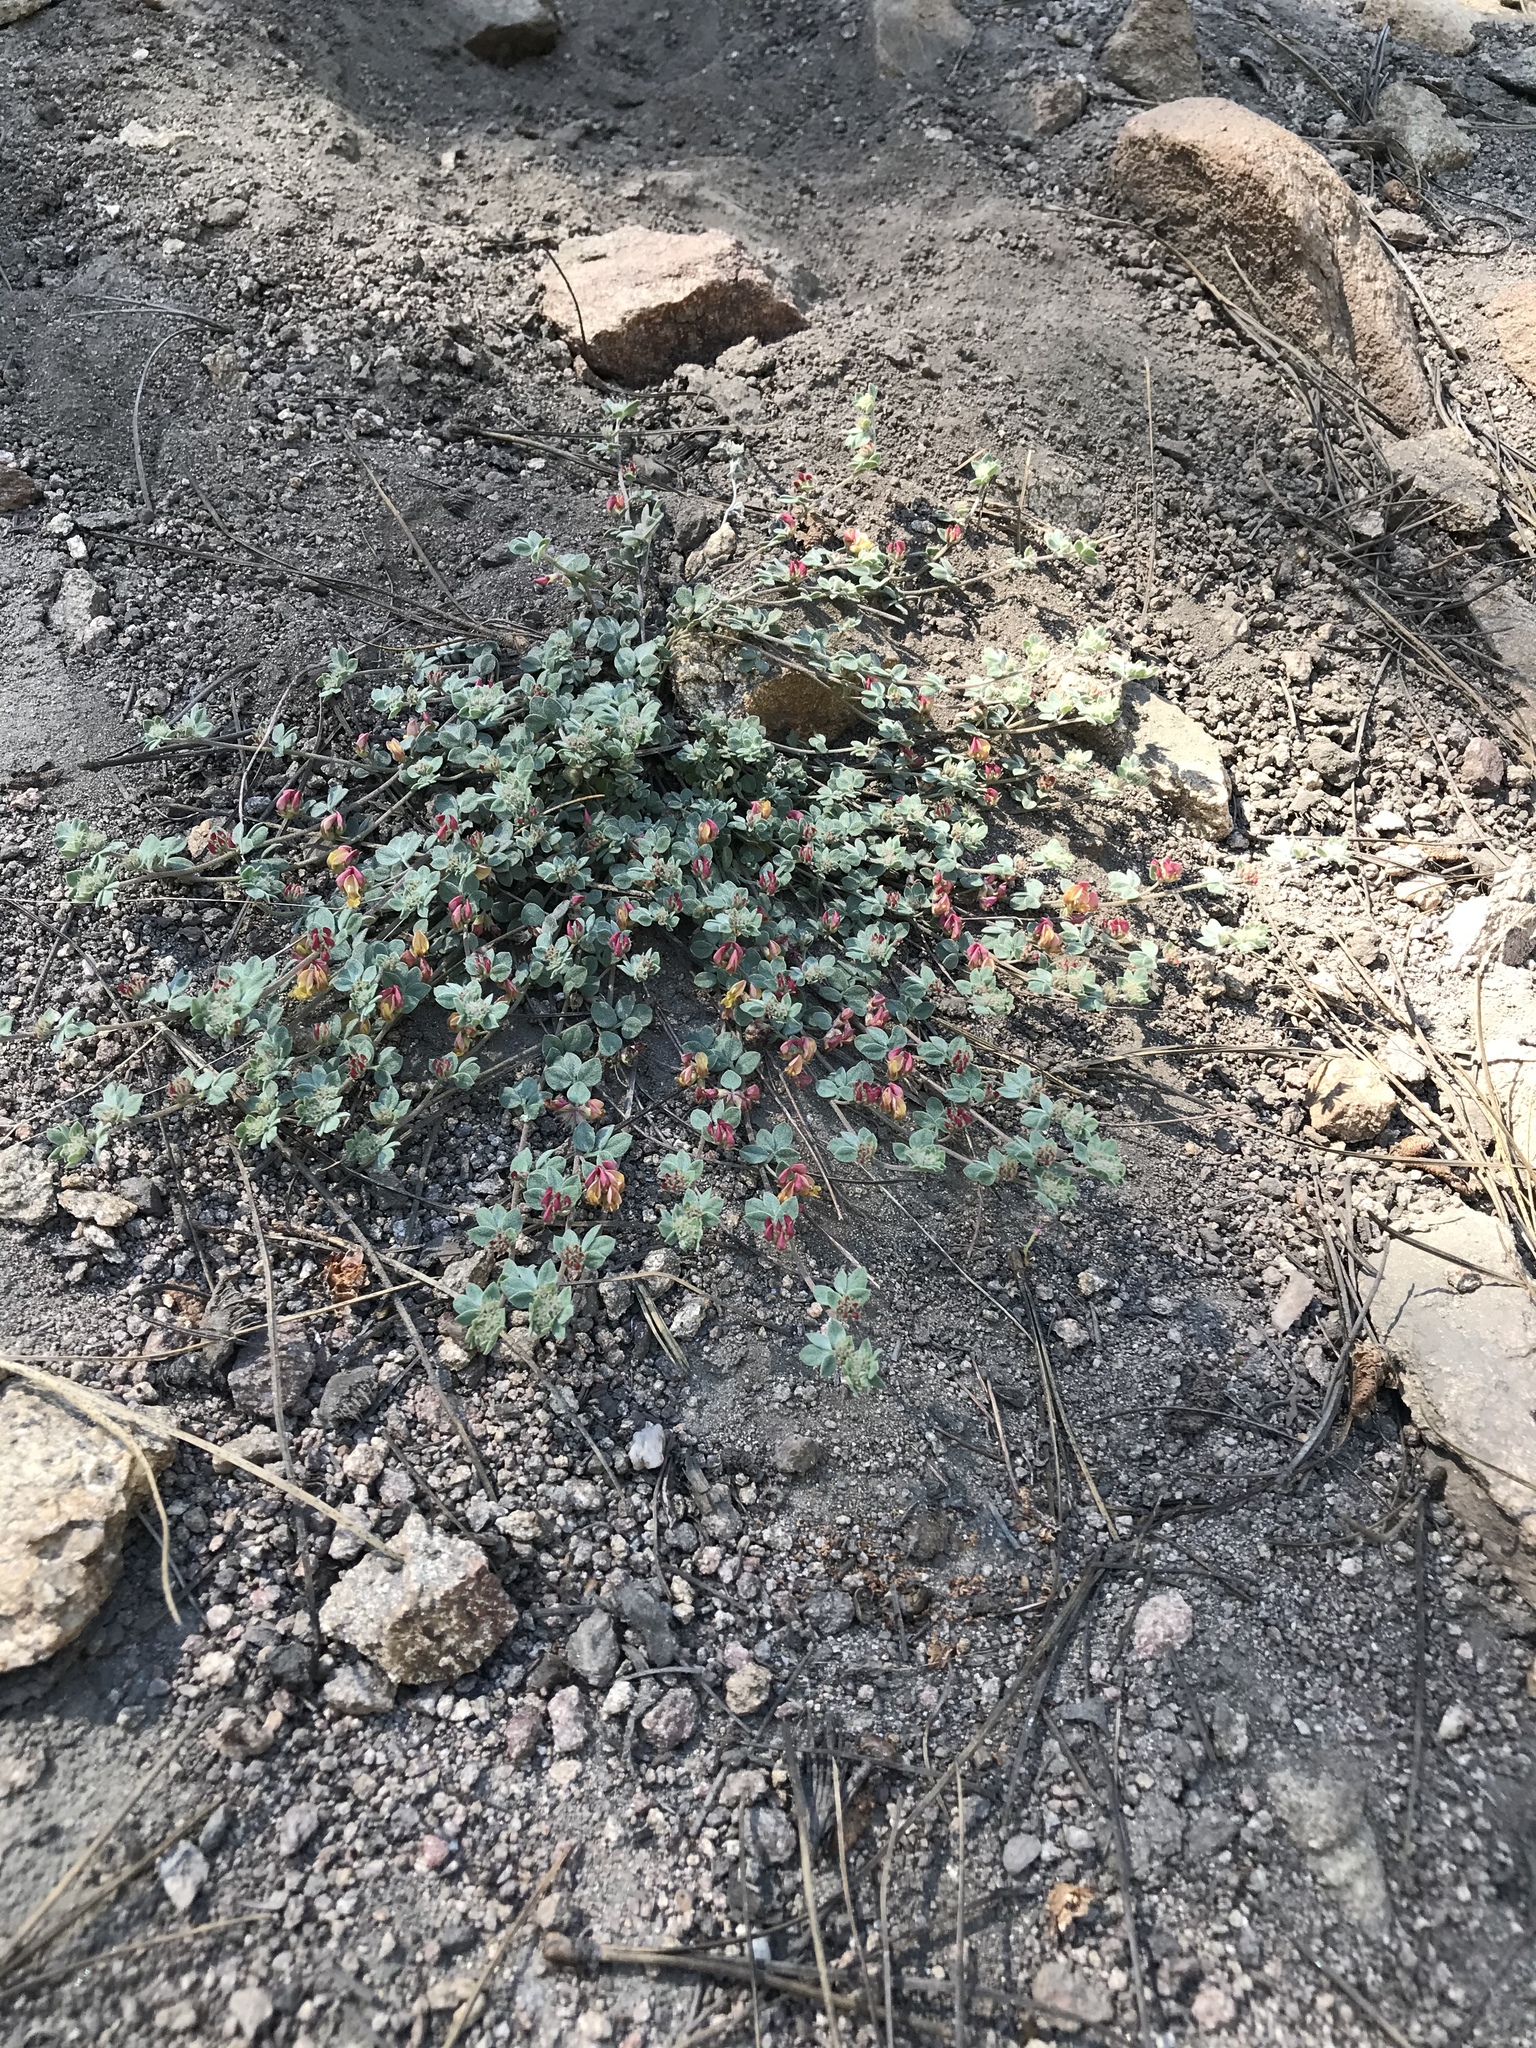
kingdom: Plantae
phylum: Tracheophyta
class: Magnoliopsida
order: Fabales
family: Fabaceae
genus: Acmispon
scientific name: Acmispon decumbens
